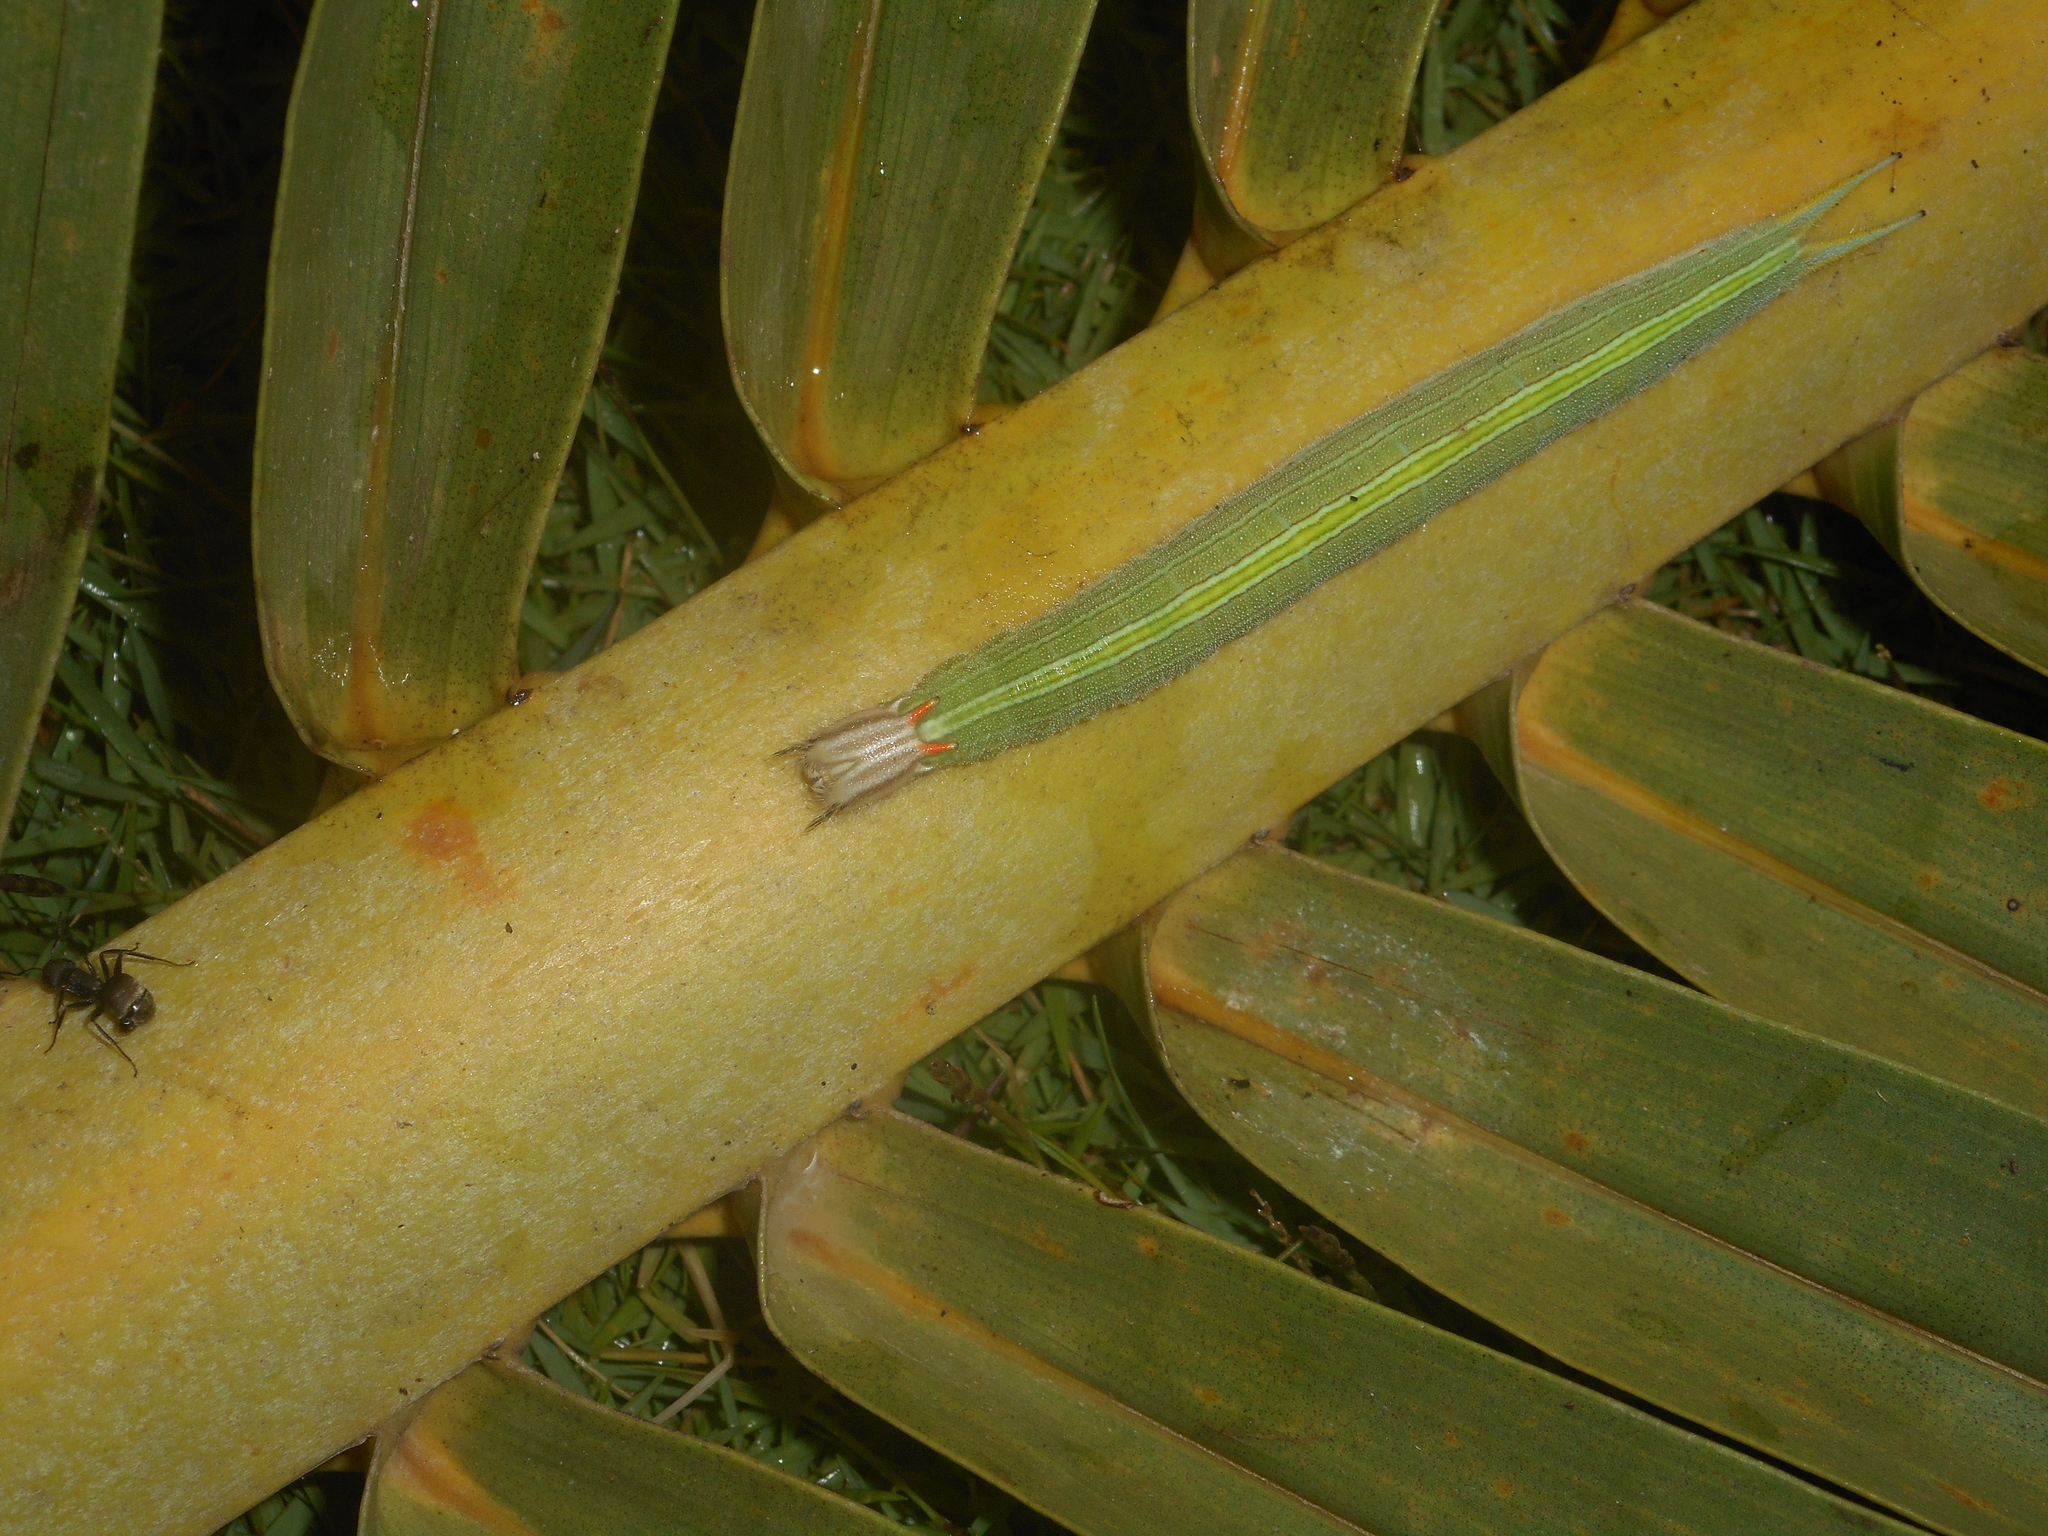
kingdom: Animalia
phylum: Arthropoda
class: Insecta
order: Lepidoptera
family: Nymphalidae
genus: Opsiphanes
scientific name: Opsiphanes cassina
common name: Split-banded owl-butterfly
